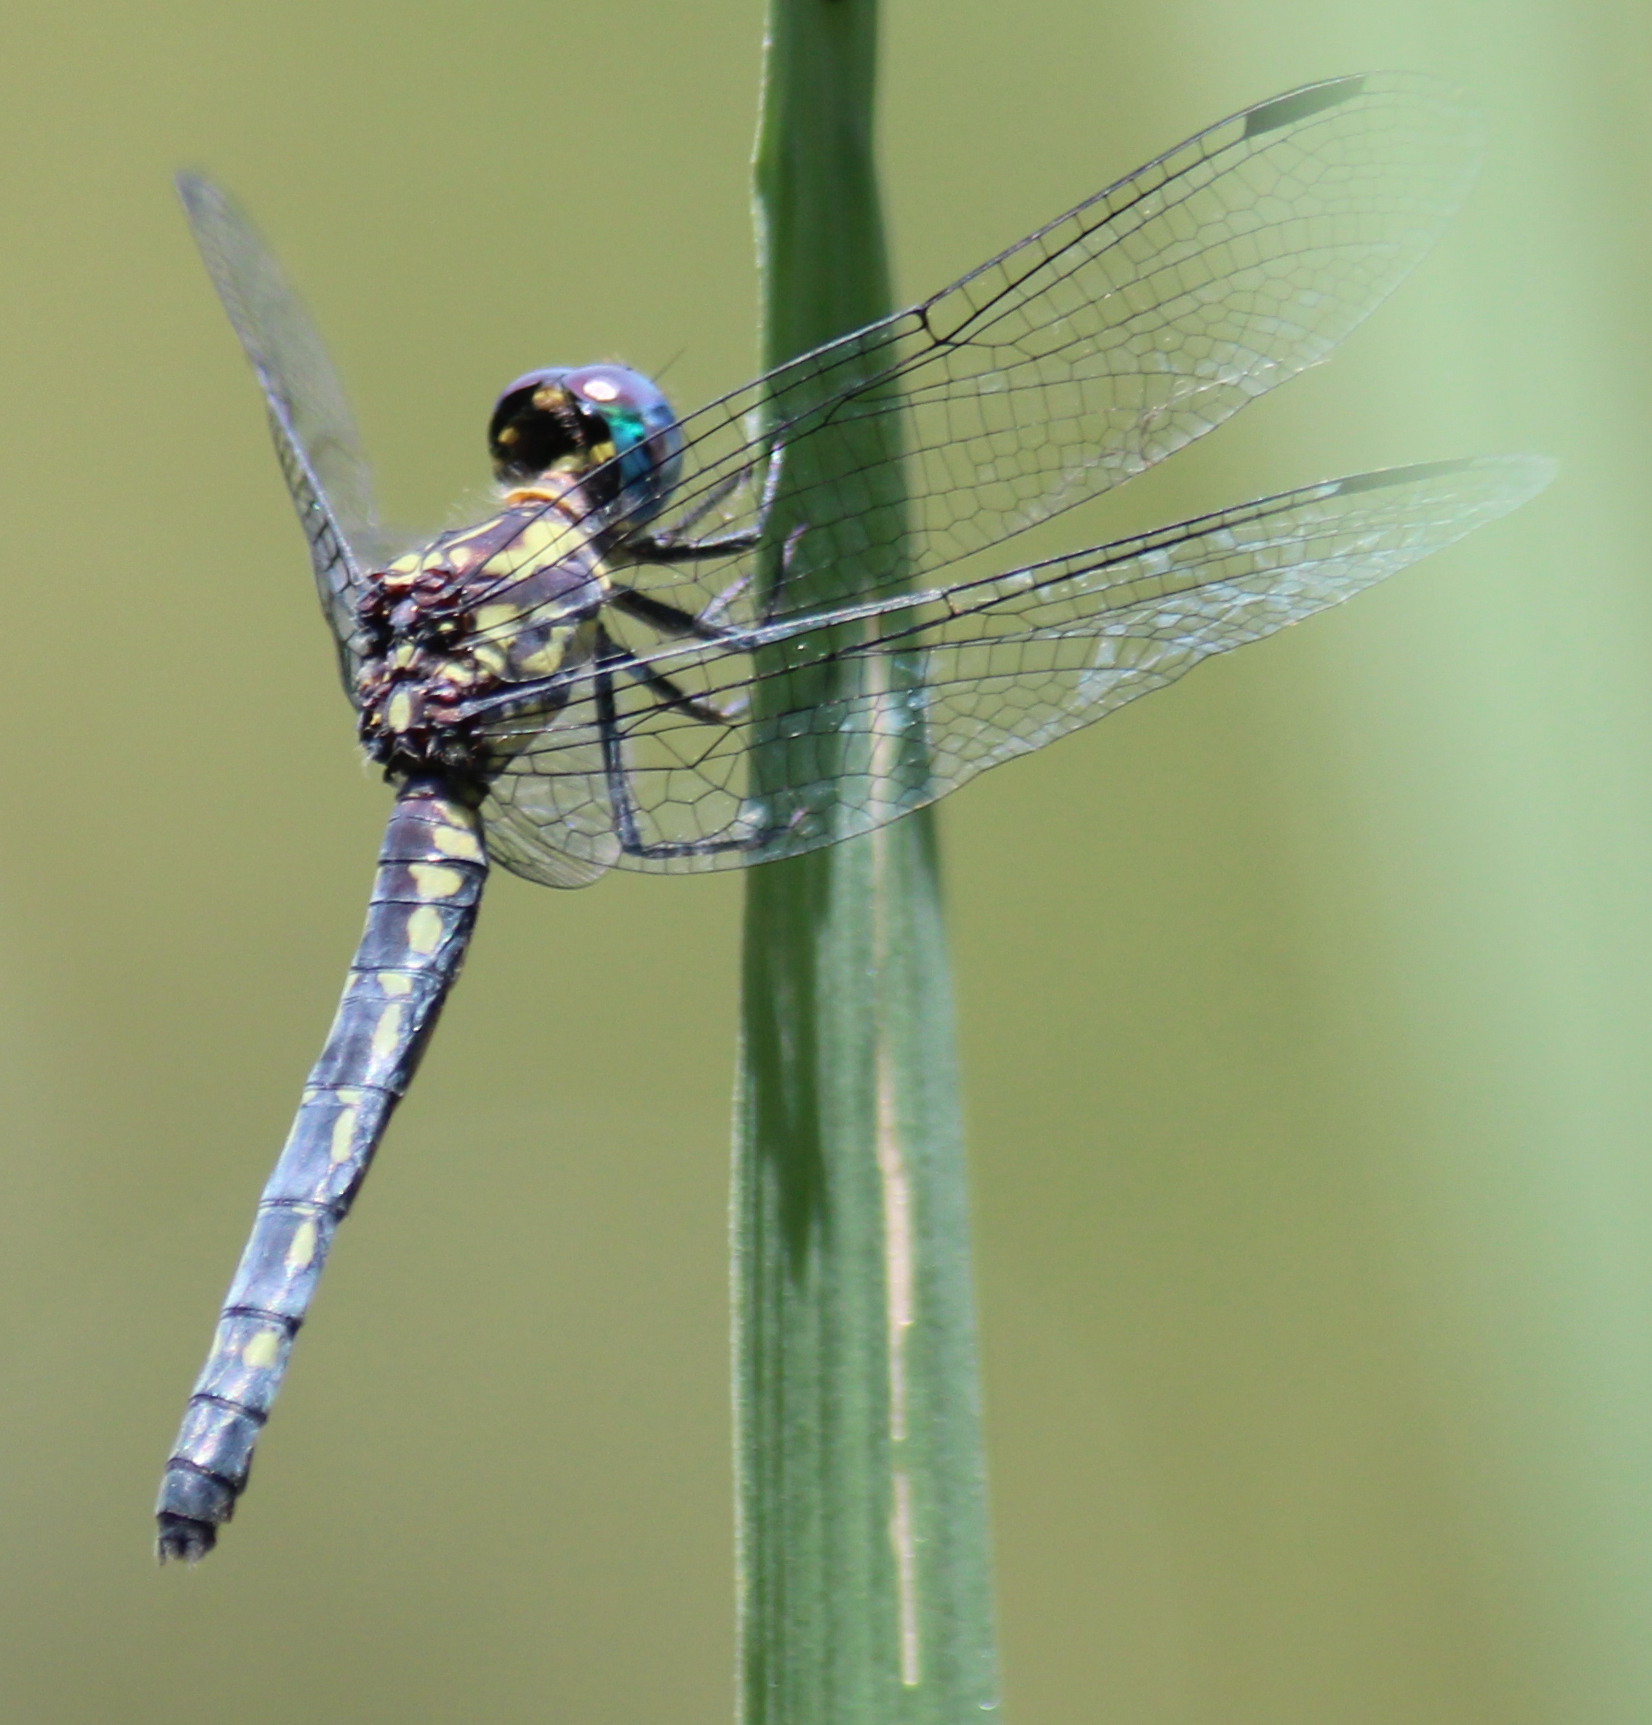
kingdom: Animalia
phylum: Arthropoda
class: Insecta
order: Odonata
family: Libellulidae
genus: Tetrathemis
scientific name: Tetrathemis polleni
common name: Black-splashed elf
